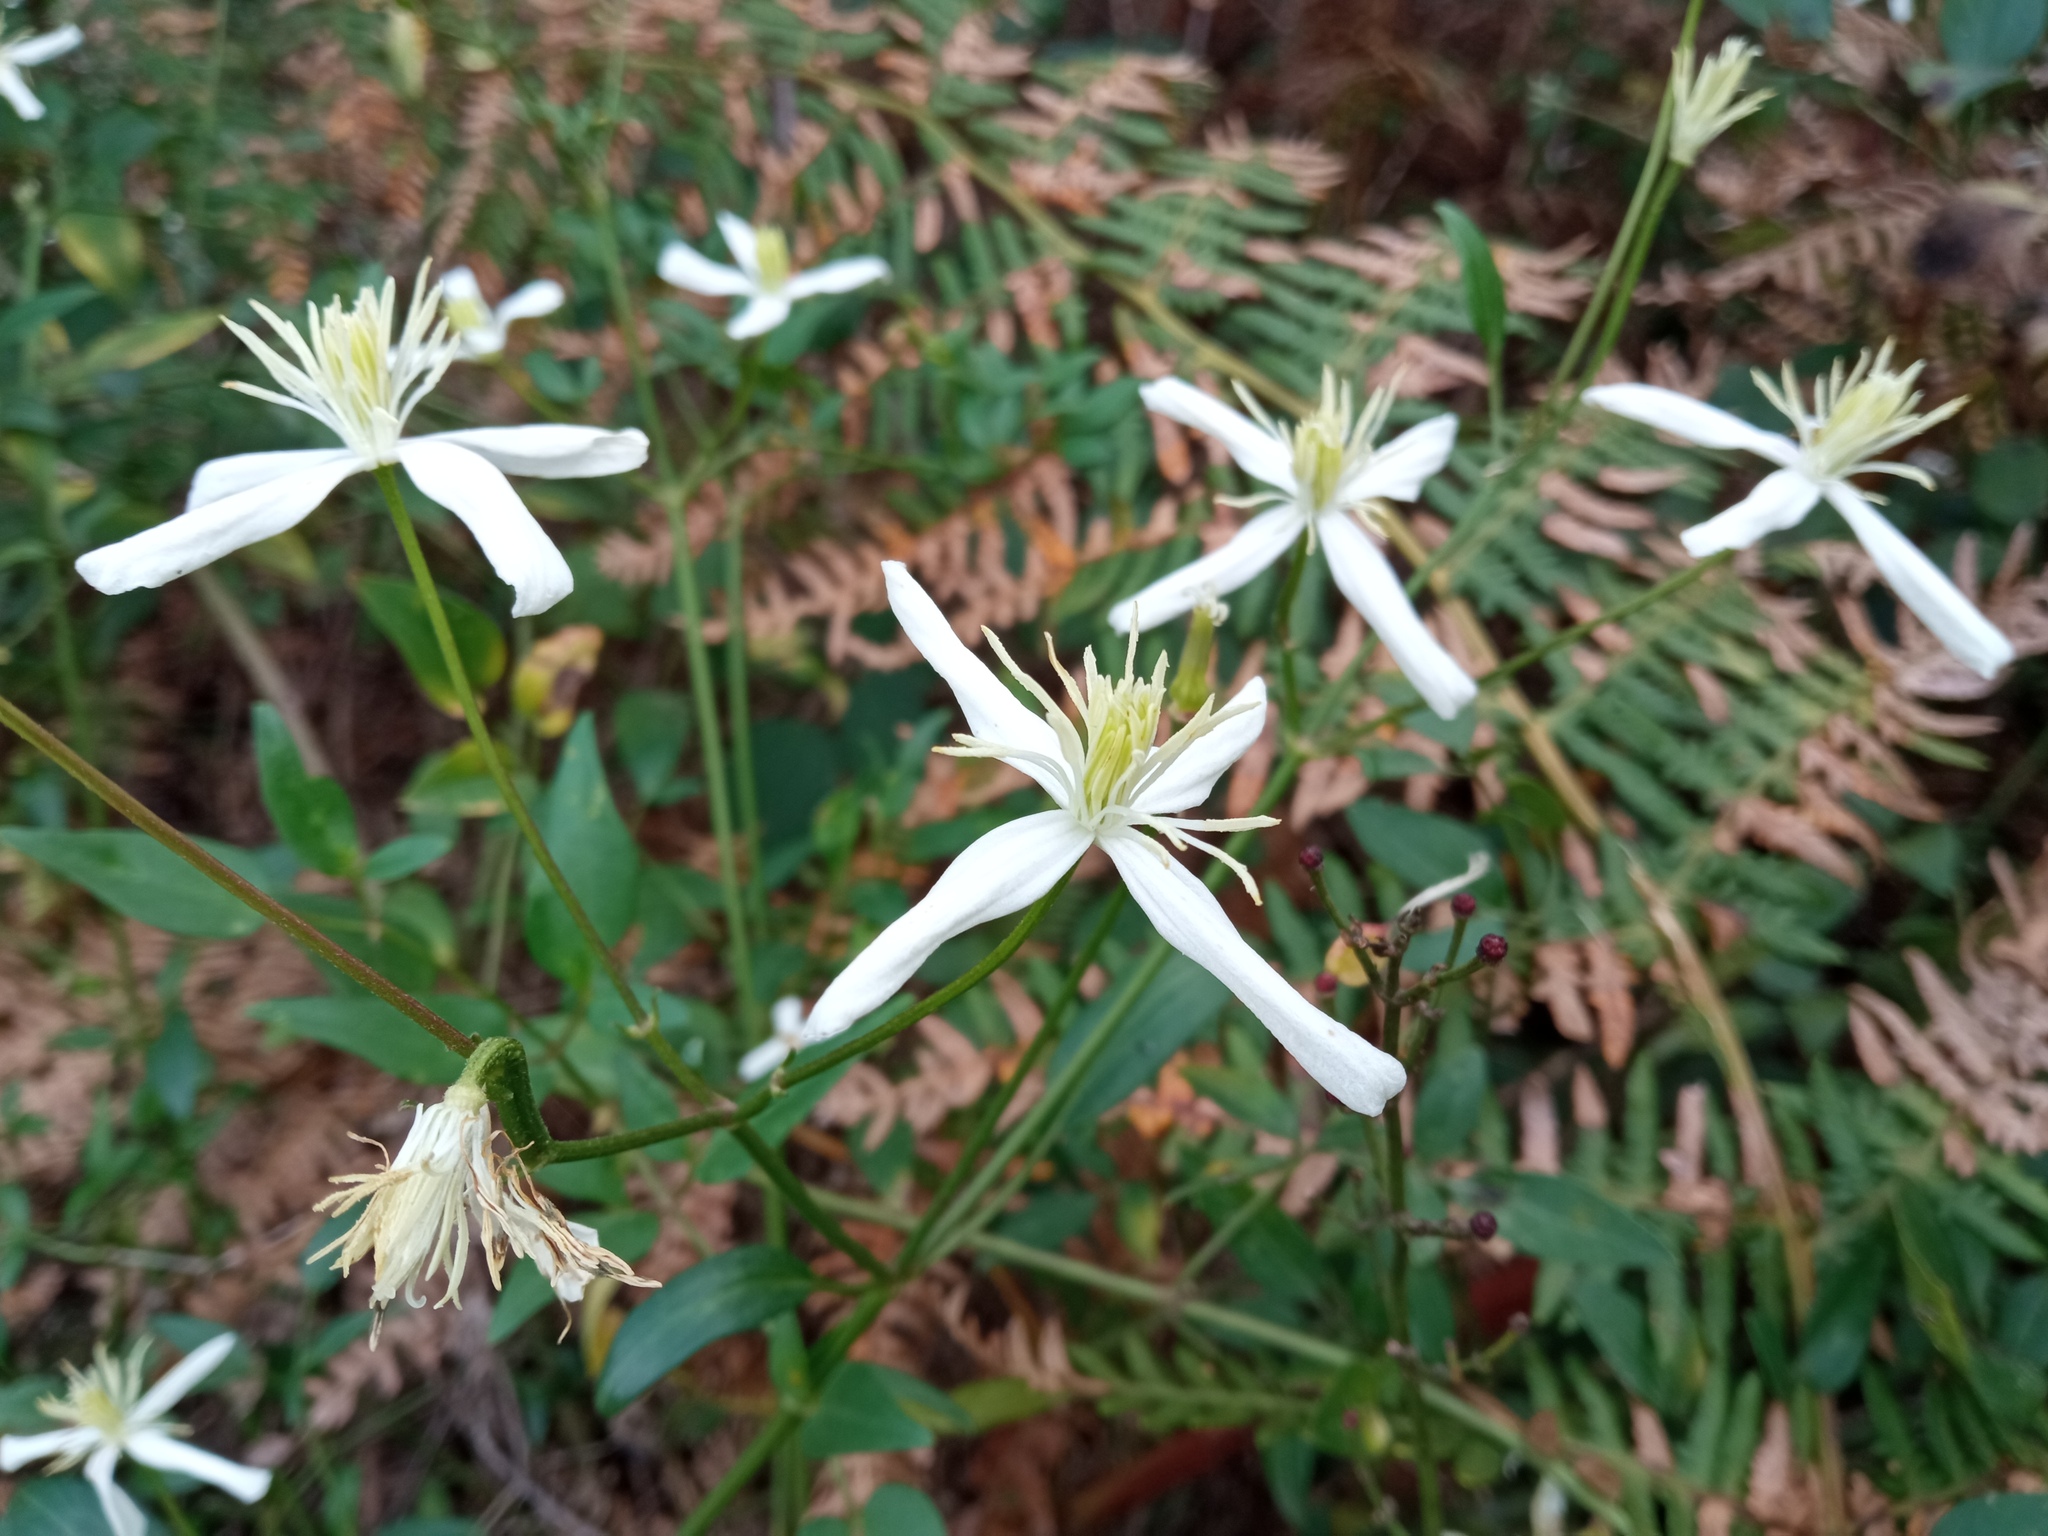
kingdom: Plantae
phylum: Tracheophyta
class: Magnoliopsida
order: Ranunculales
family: Ranunculaceae
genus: Clematis
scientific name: Clematis flammula
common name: Virgin's-bower
